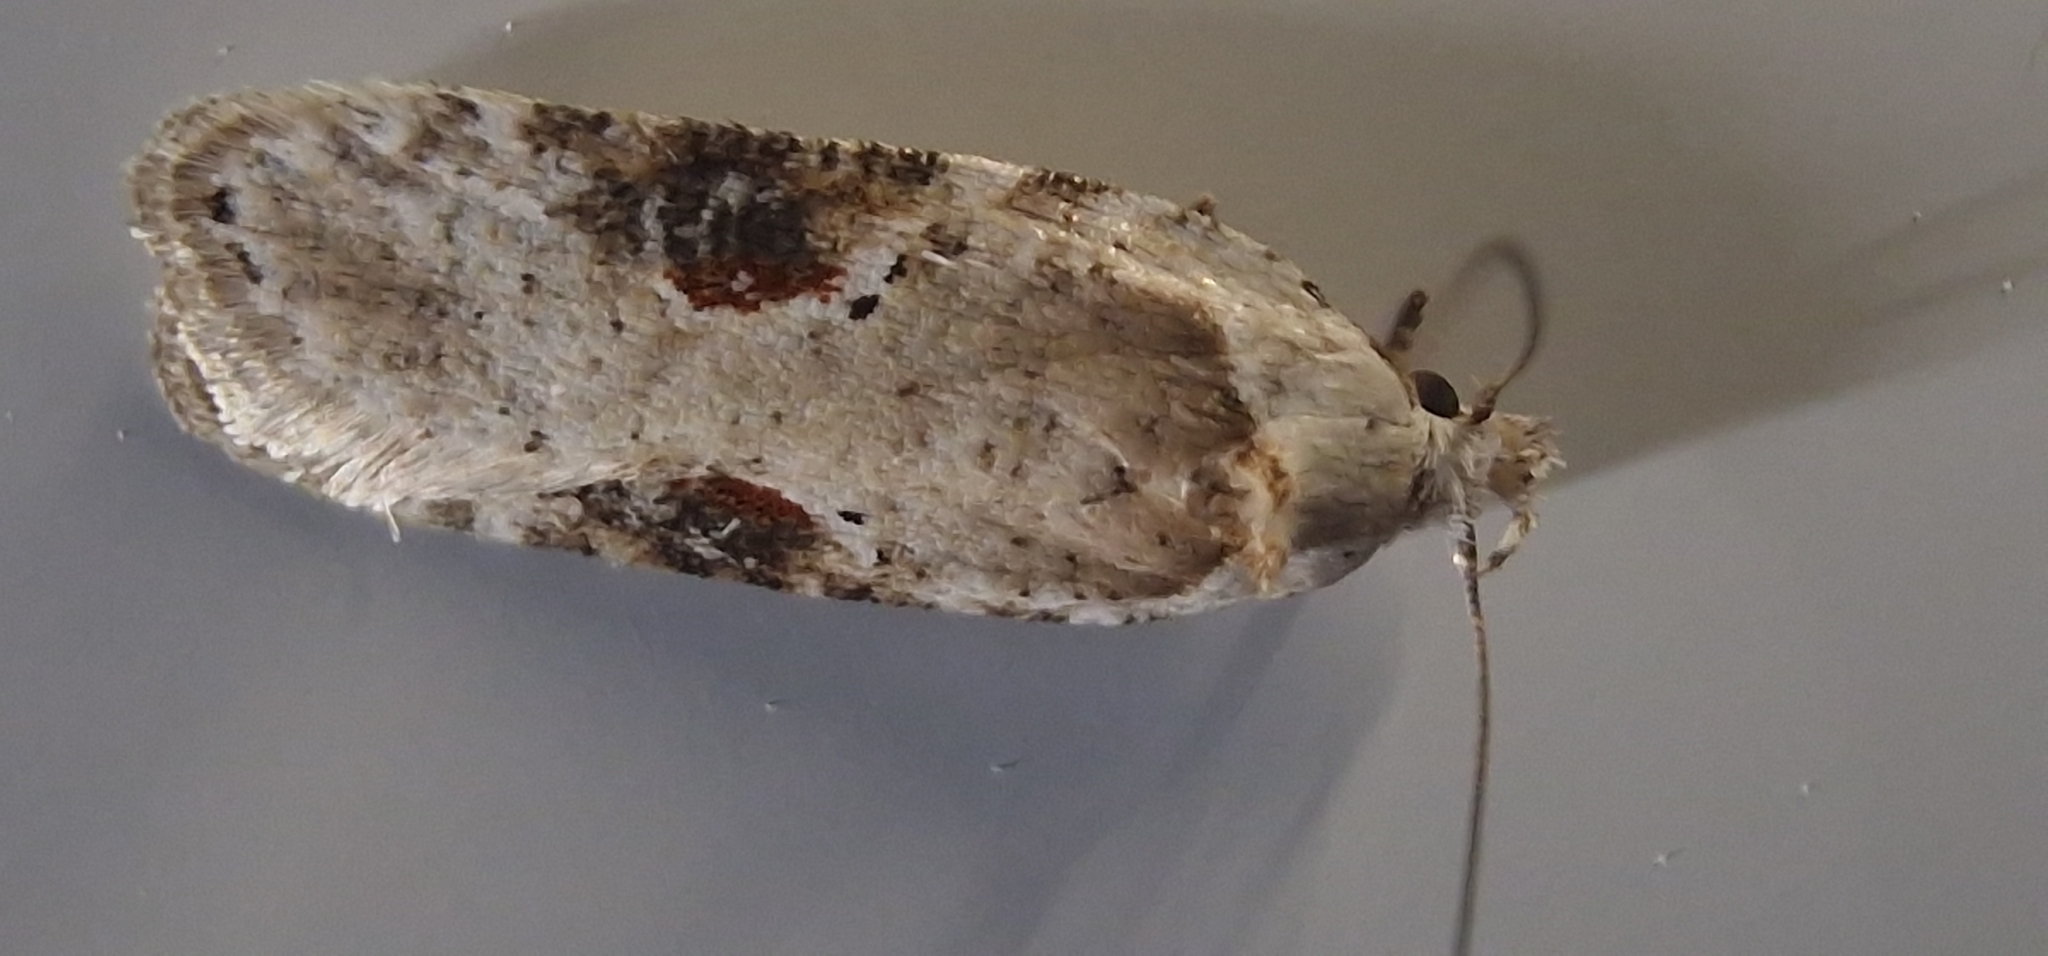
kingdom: Animalia
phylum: Arthropoda
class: Insecta
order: Lepidoptera
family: Depressariidae
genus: Agonopterix
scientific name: Agonopterix alstroemeriana
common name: Moth
